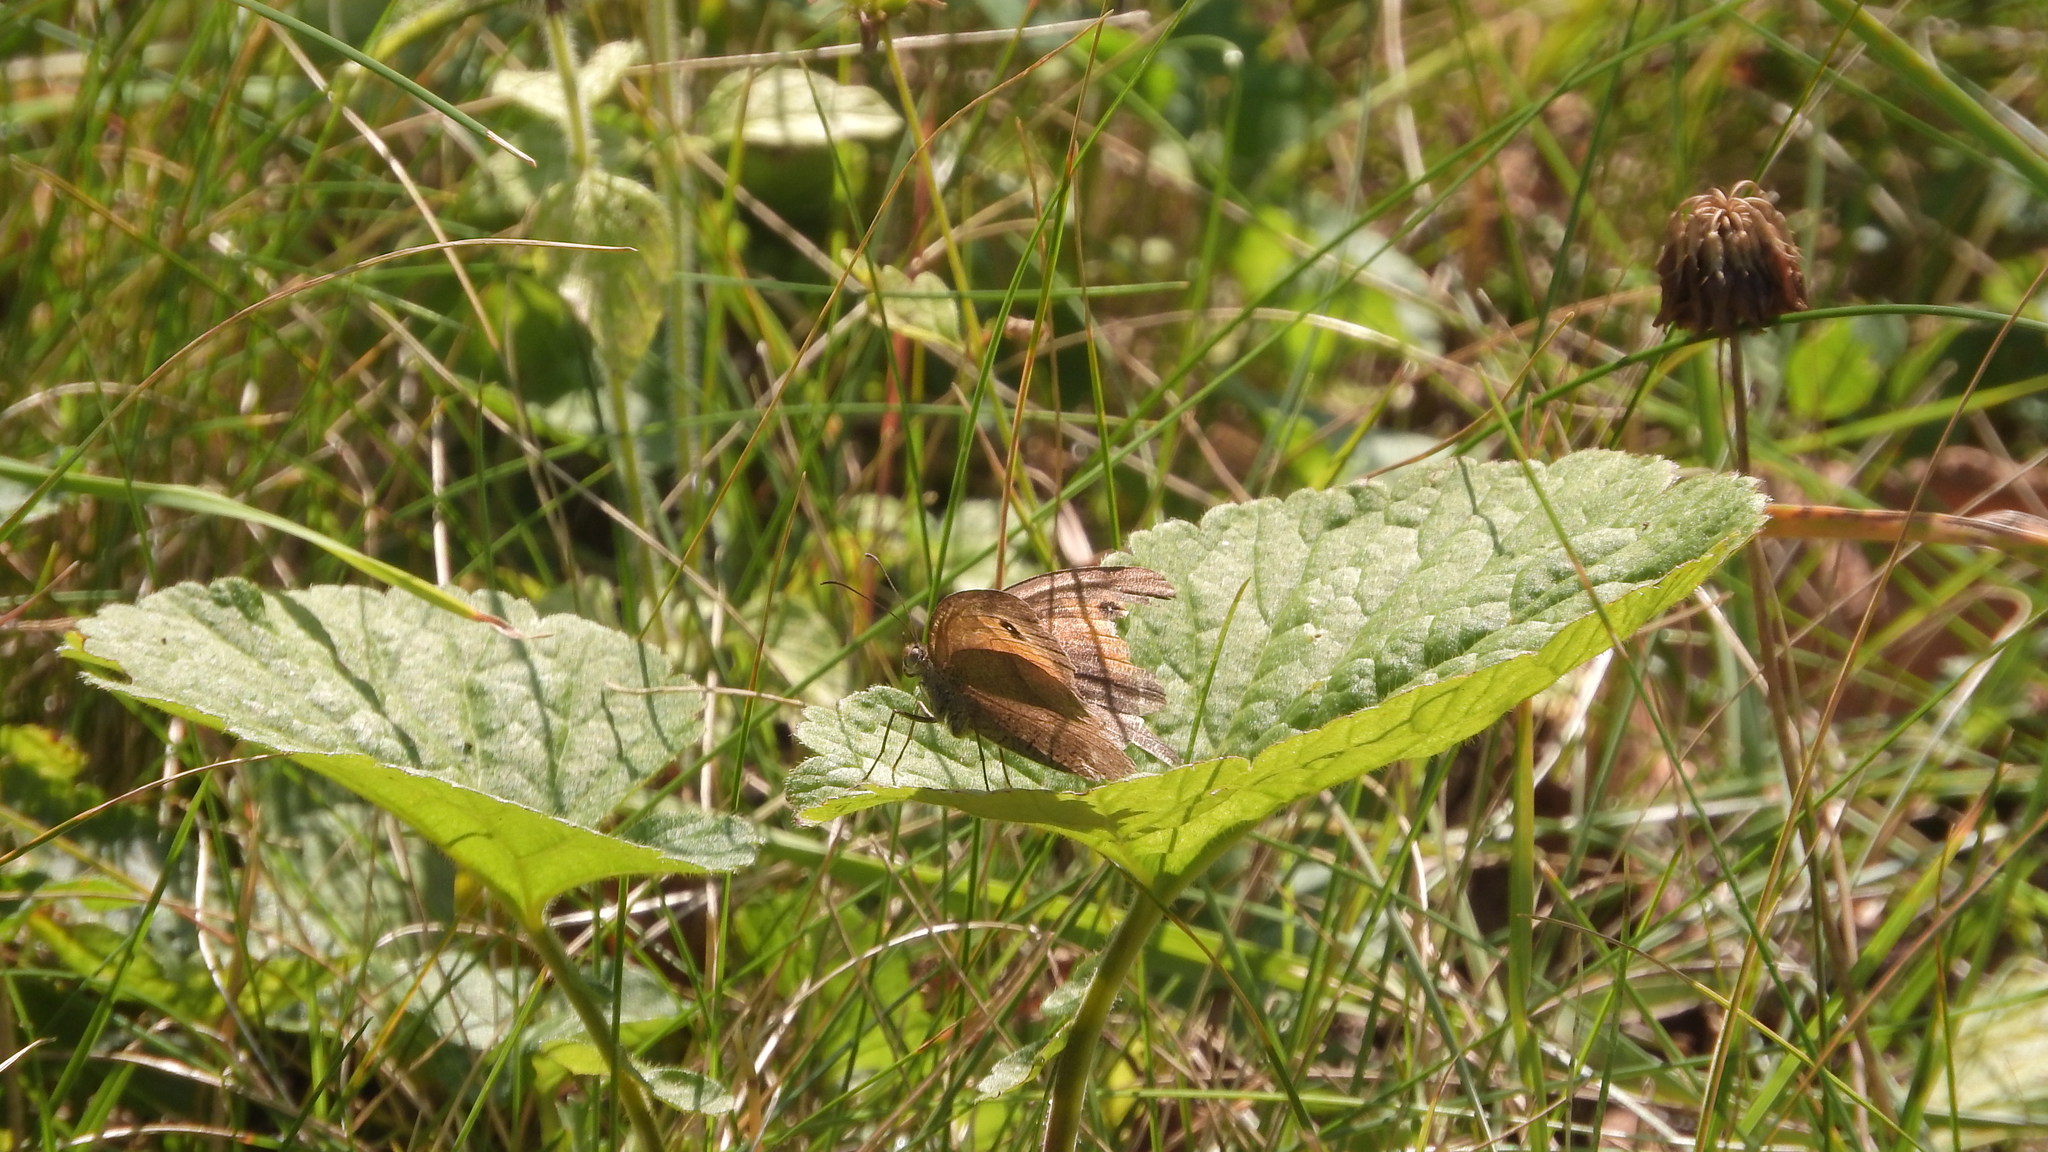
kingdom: Animalia
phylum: Arthropoda
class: Insecta
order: Lepidoptera
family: Nymphalidae
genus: Maniola
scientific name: Maniola jurtina
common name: Meadow brown
